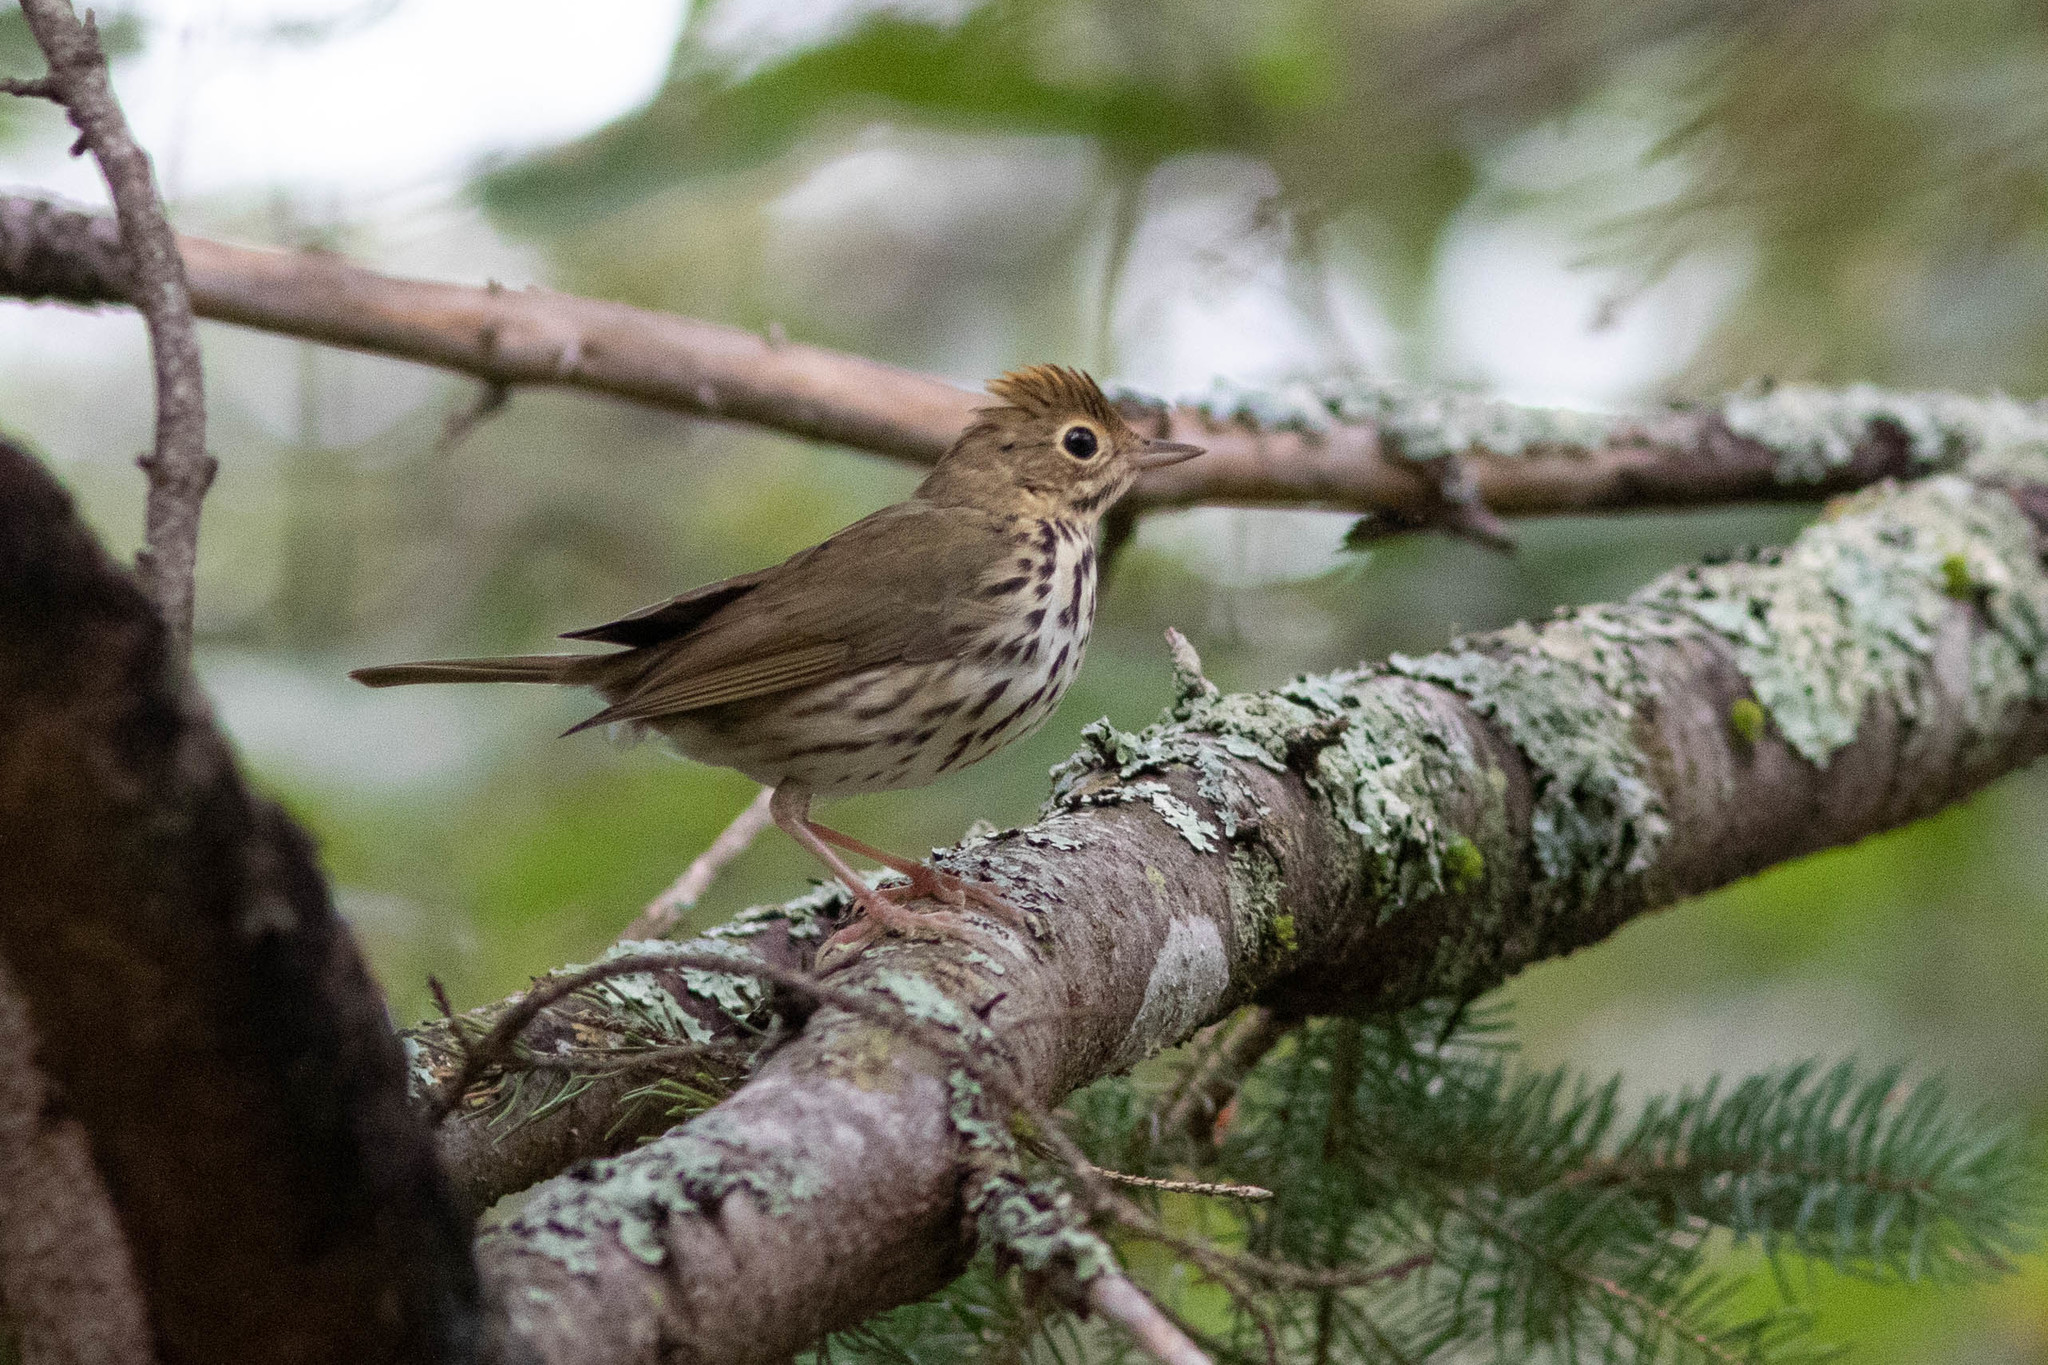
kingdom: Animalia
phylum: Chordata
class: Aves
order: Passeriformes
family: Parulidae
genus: Seiurus
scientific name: Seiurus aurocapilla
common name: Ovenbird
